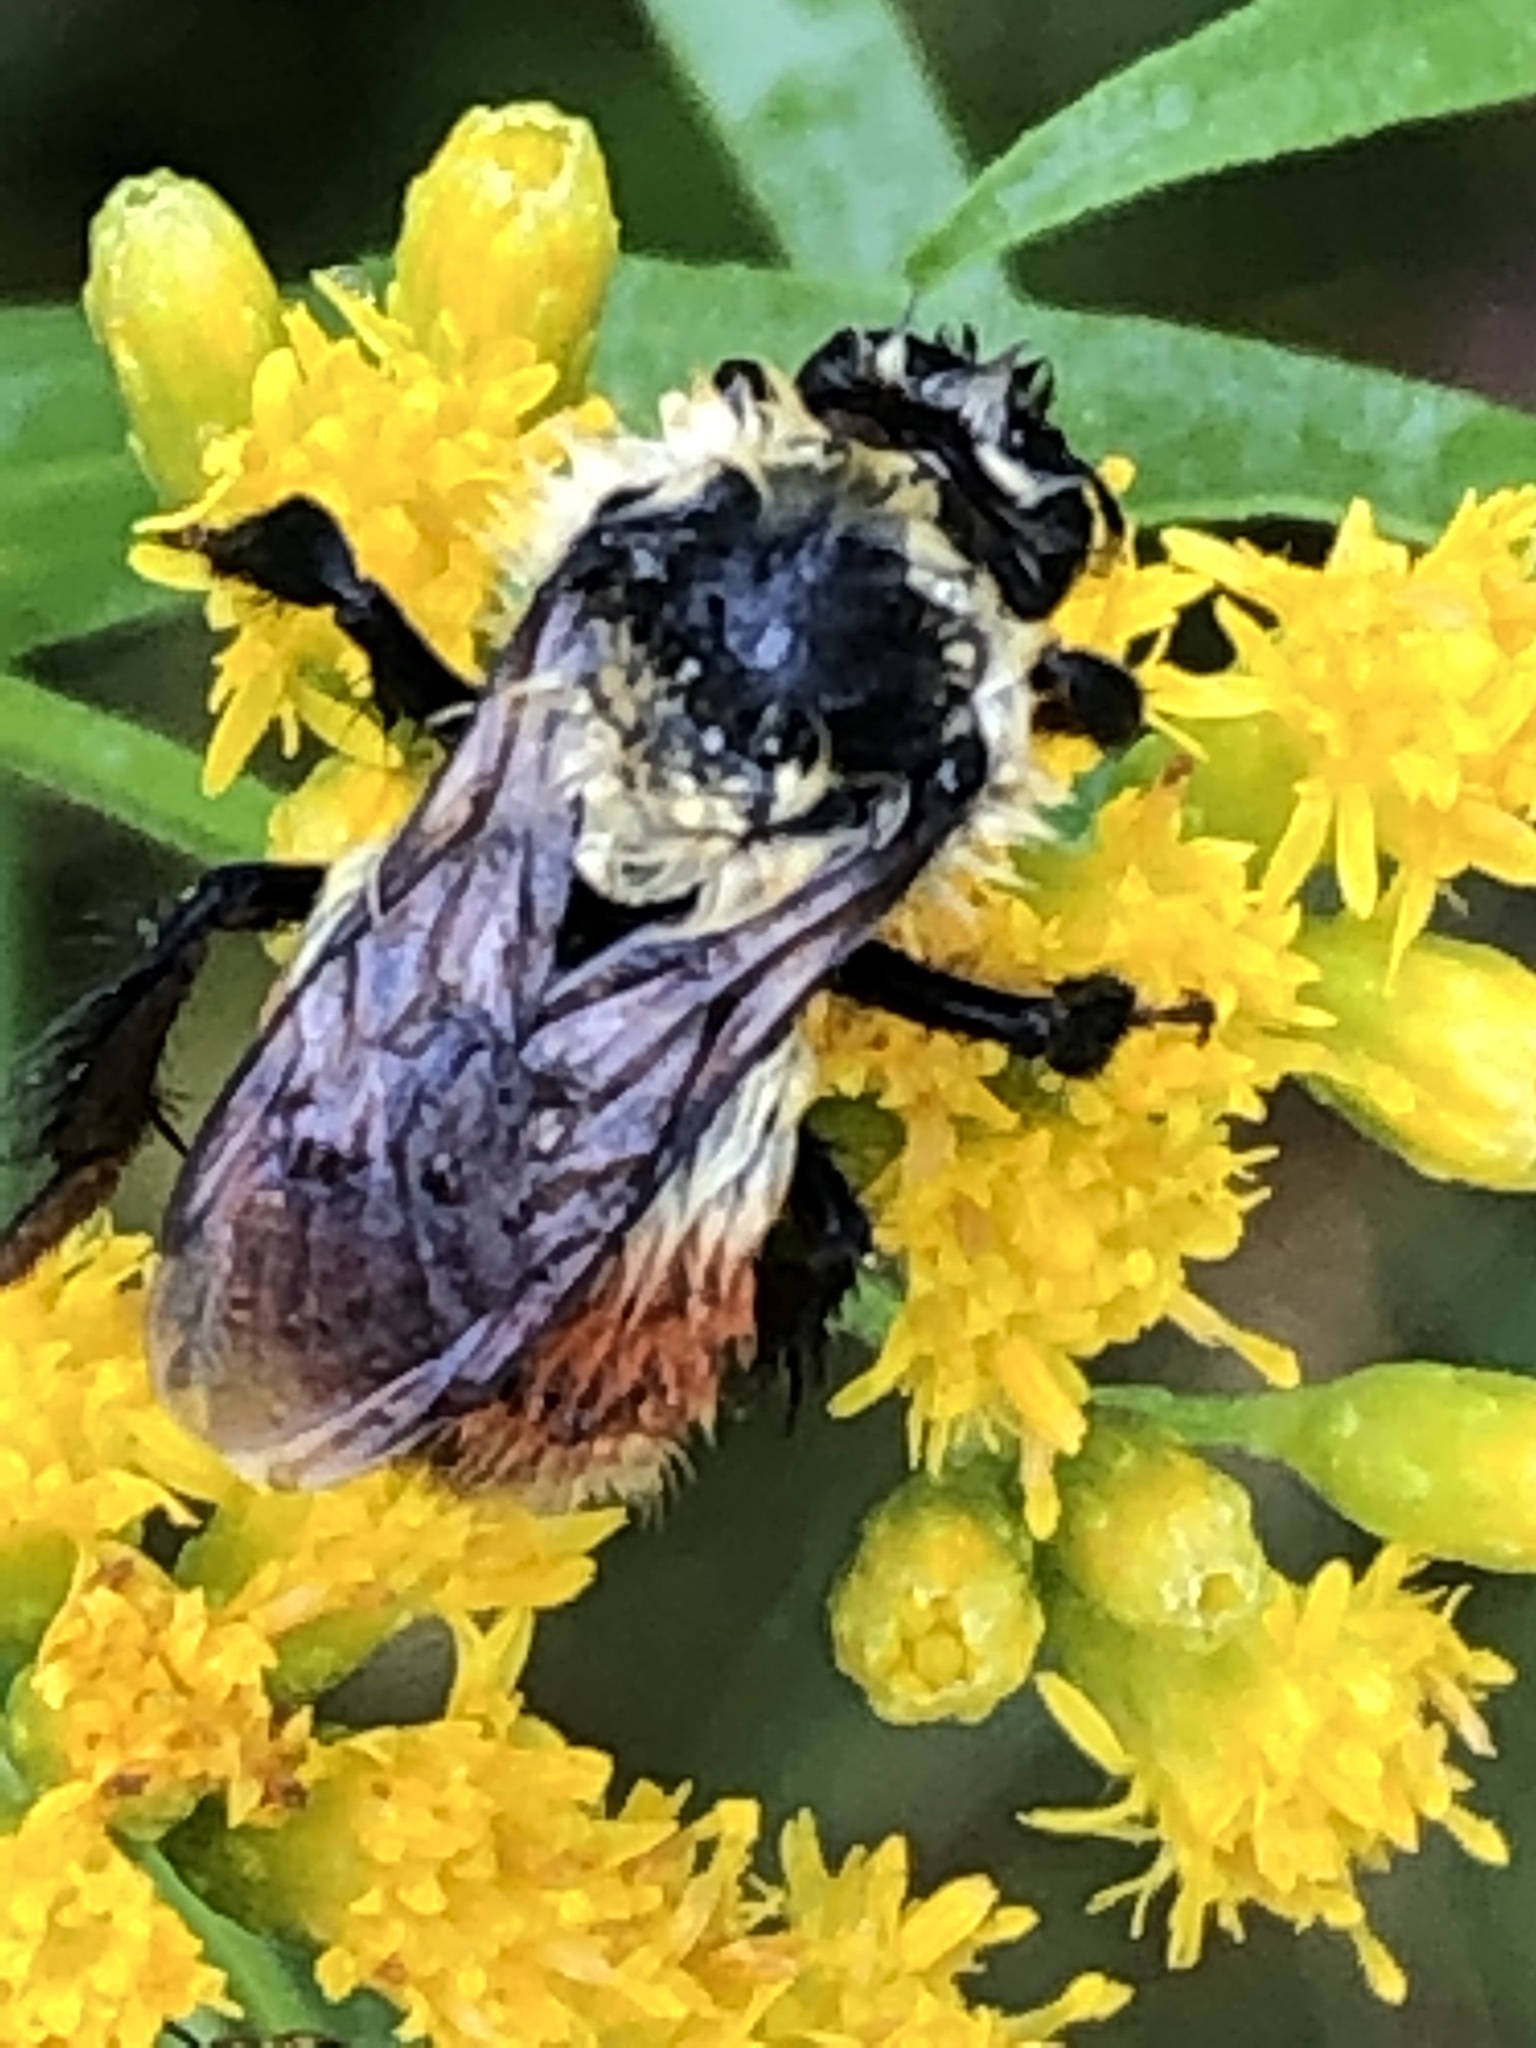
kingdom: Animalia
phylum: Arthropoda
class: Insecta
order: Hymenoptera
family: Apidae
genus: Bombus
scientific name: Bombus rufocinctus
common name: Red-belted bumble bee
